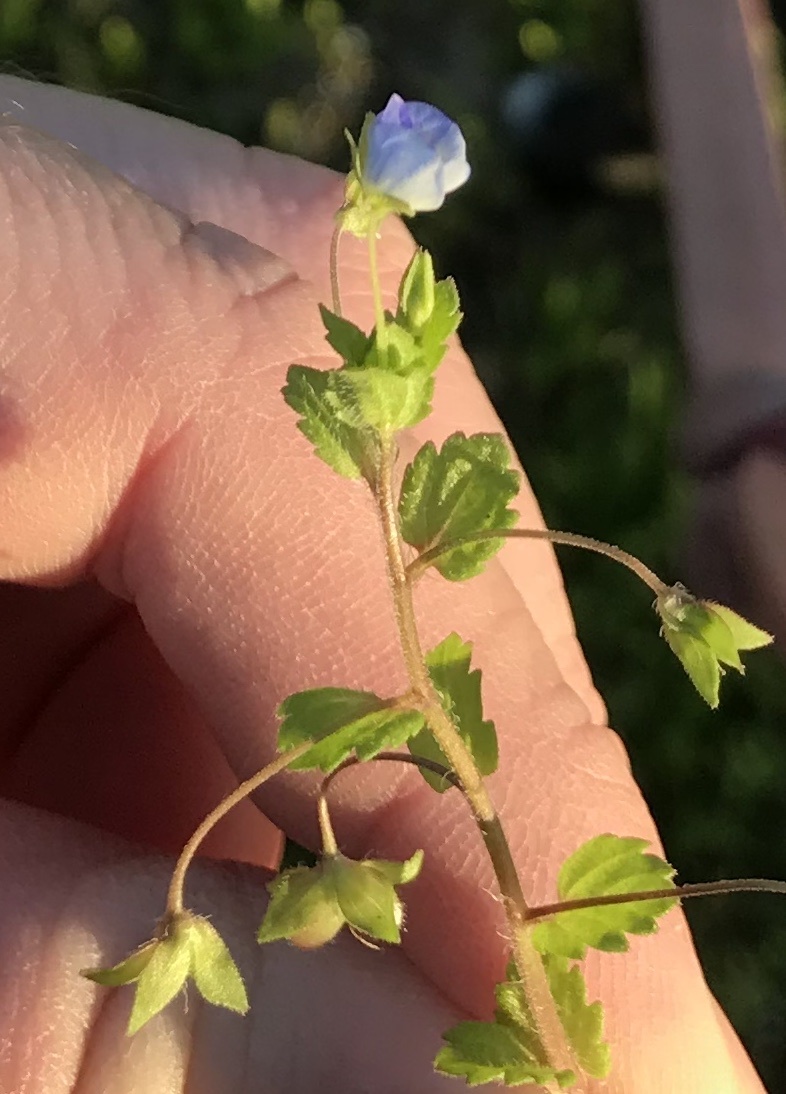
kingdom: Plantae
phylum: Tracheophyta
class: Magnoliopsida
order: Lamiales
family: Plantaginaceae
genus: Veronica
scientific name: Veronica persica
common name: Common field-speedwell
